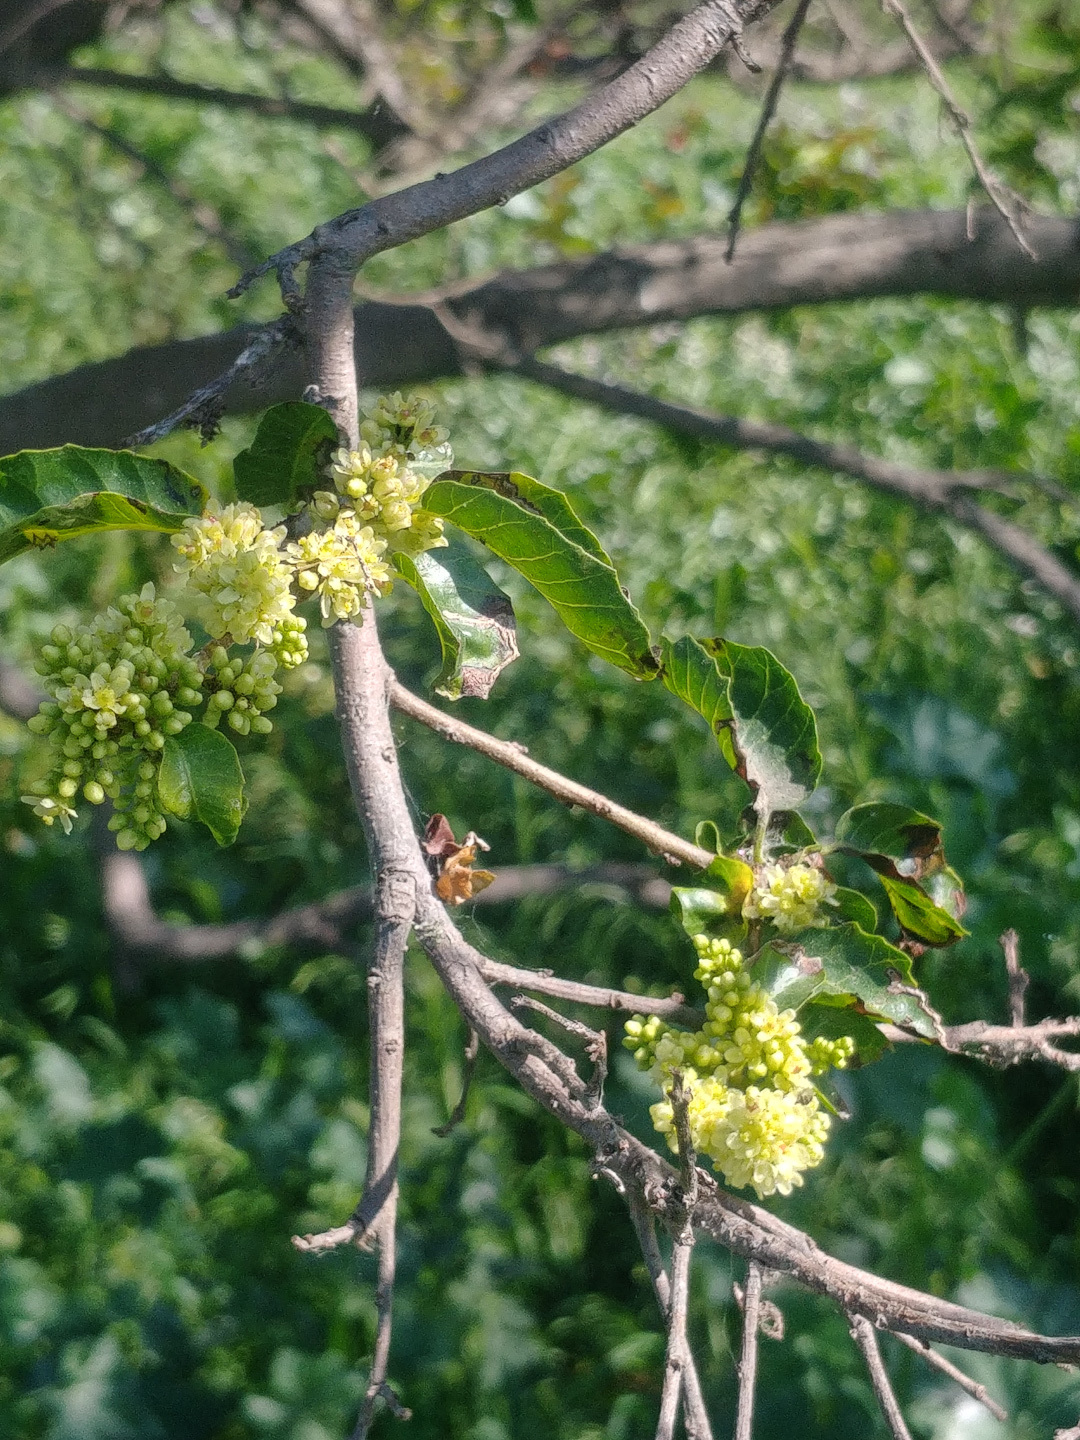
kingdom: Plantae
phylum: Tracheophyta
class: Magnoliopsida
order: Sapindales
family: Anacardiaceae
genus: Schinus
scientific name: Schinus latifolia
